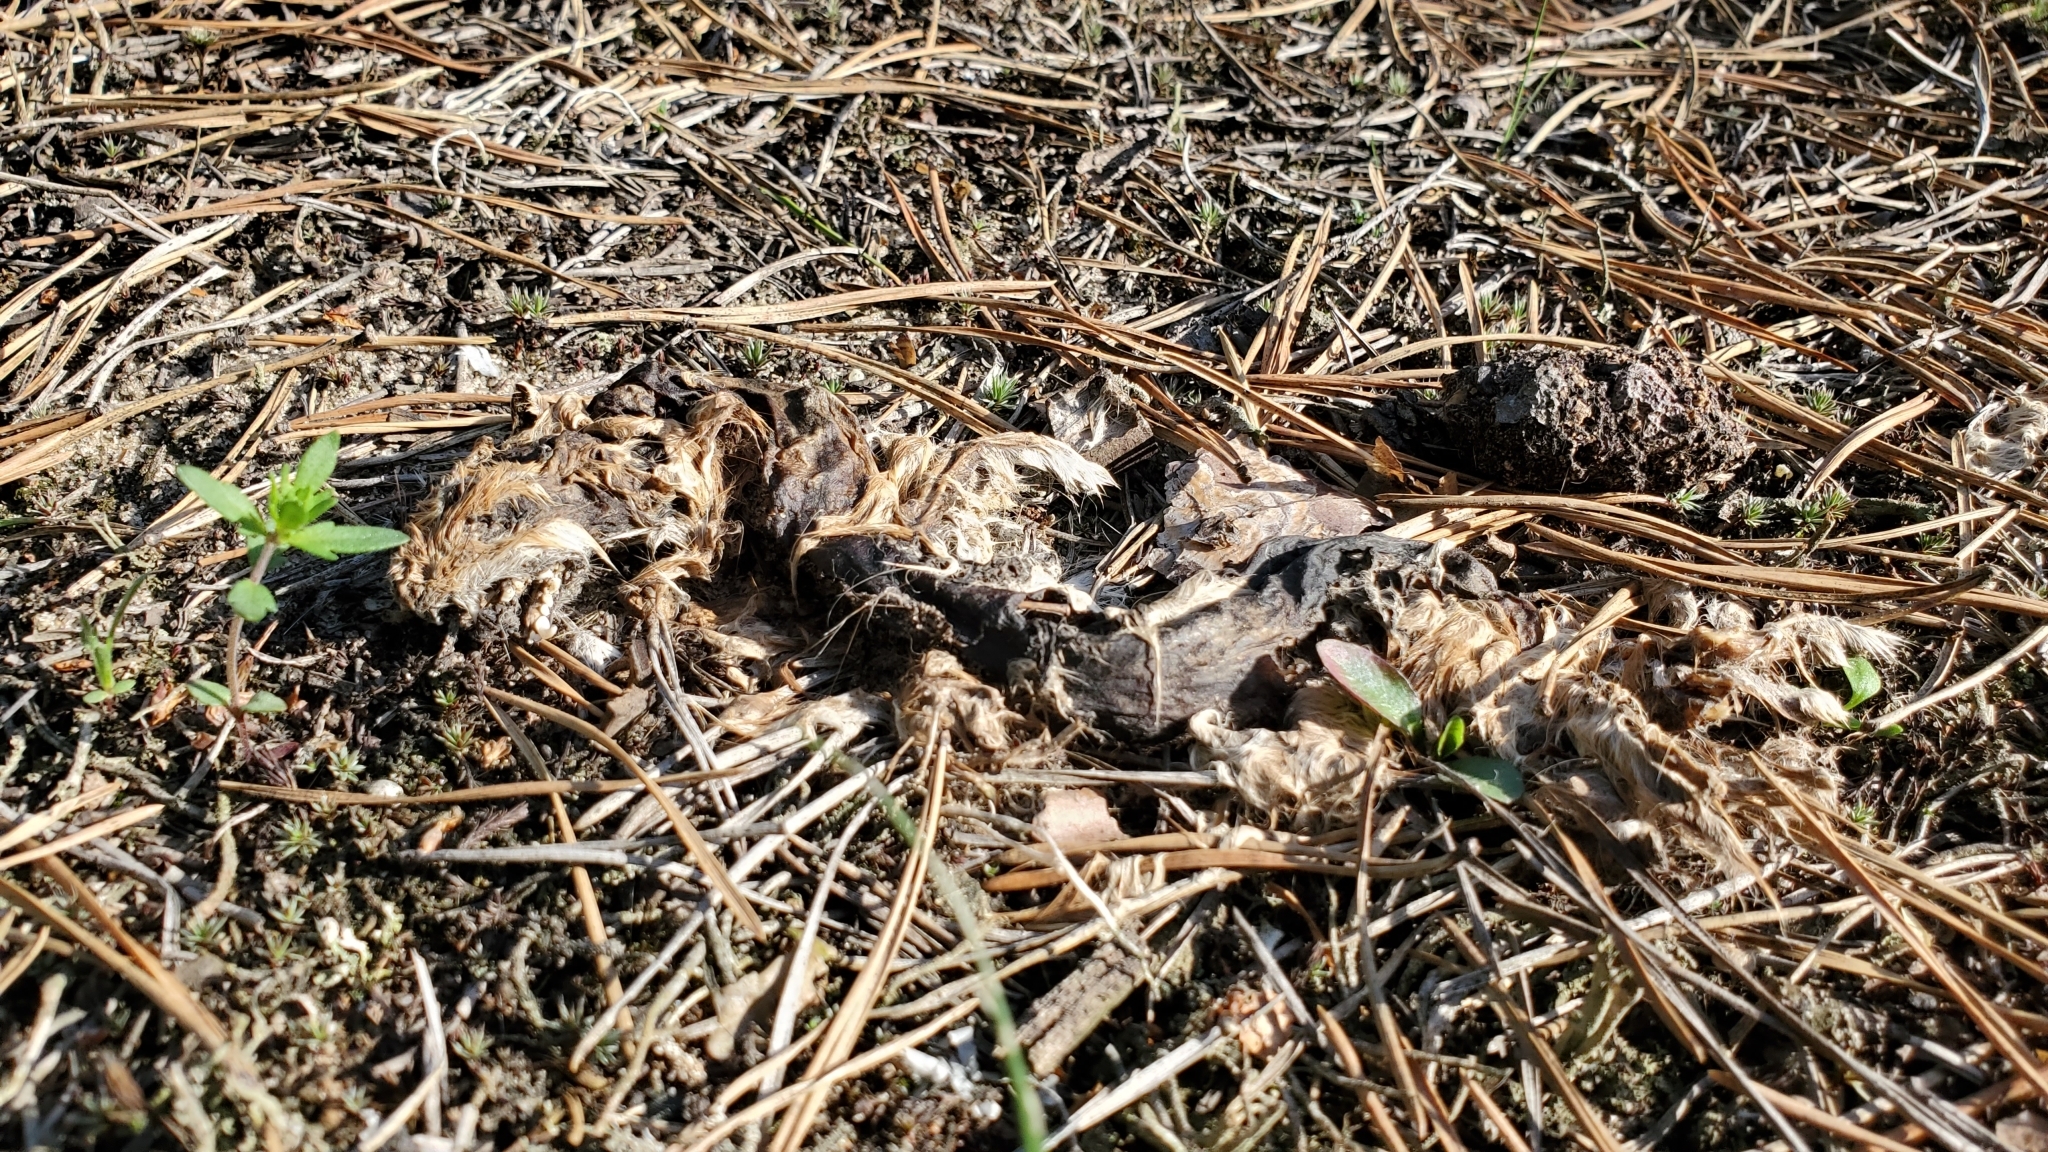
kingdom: Animalia
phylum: Chordata
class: Mammalia
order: Carnivora
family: Mustelidae
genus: Mustela
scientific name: Mustela nivalis
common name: Least weasel
